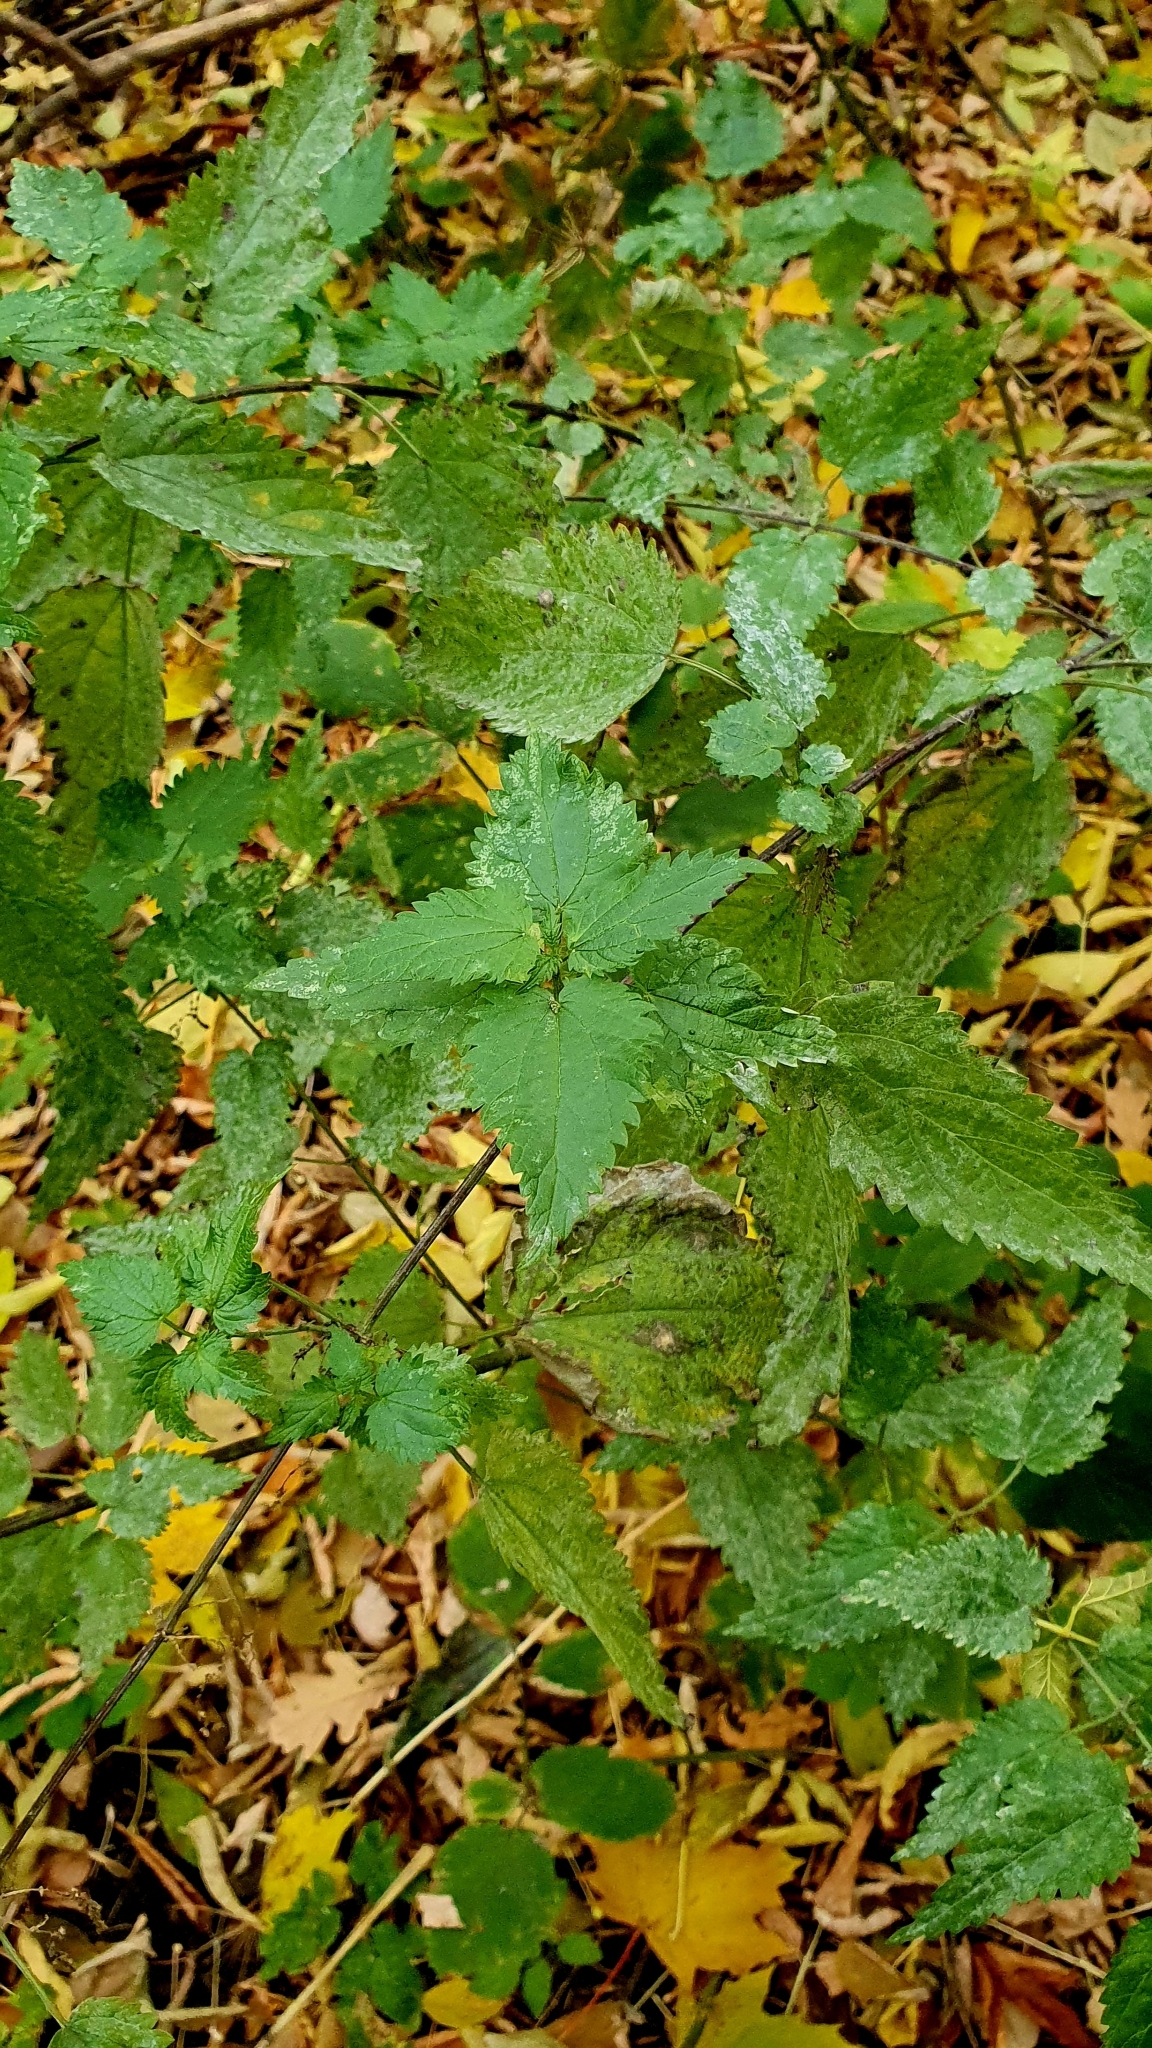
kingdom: Plantae
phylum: Tracheophyta
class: Magnoliopsida
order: Rosales
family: Urticaceae
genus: Urtica
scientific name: Urtica dioica
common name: Common nettle
